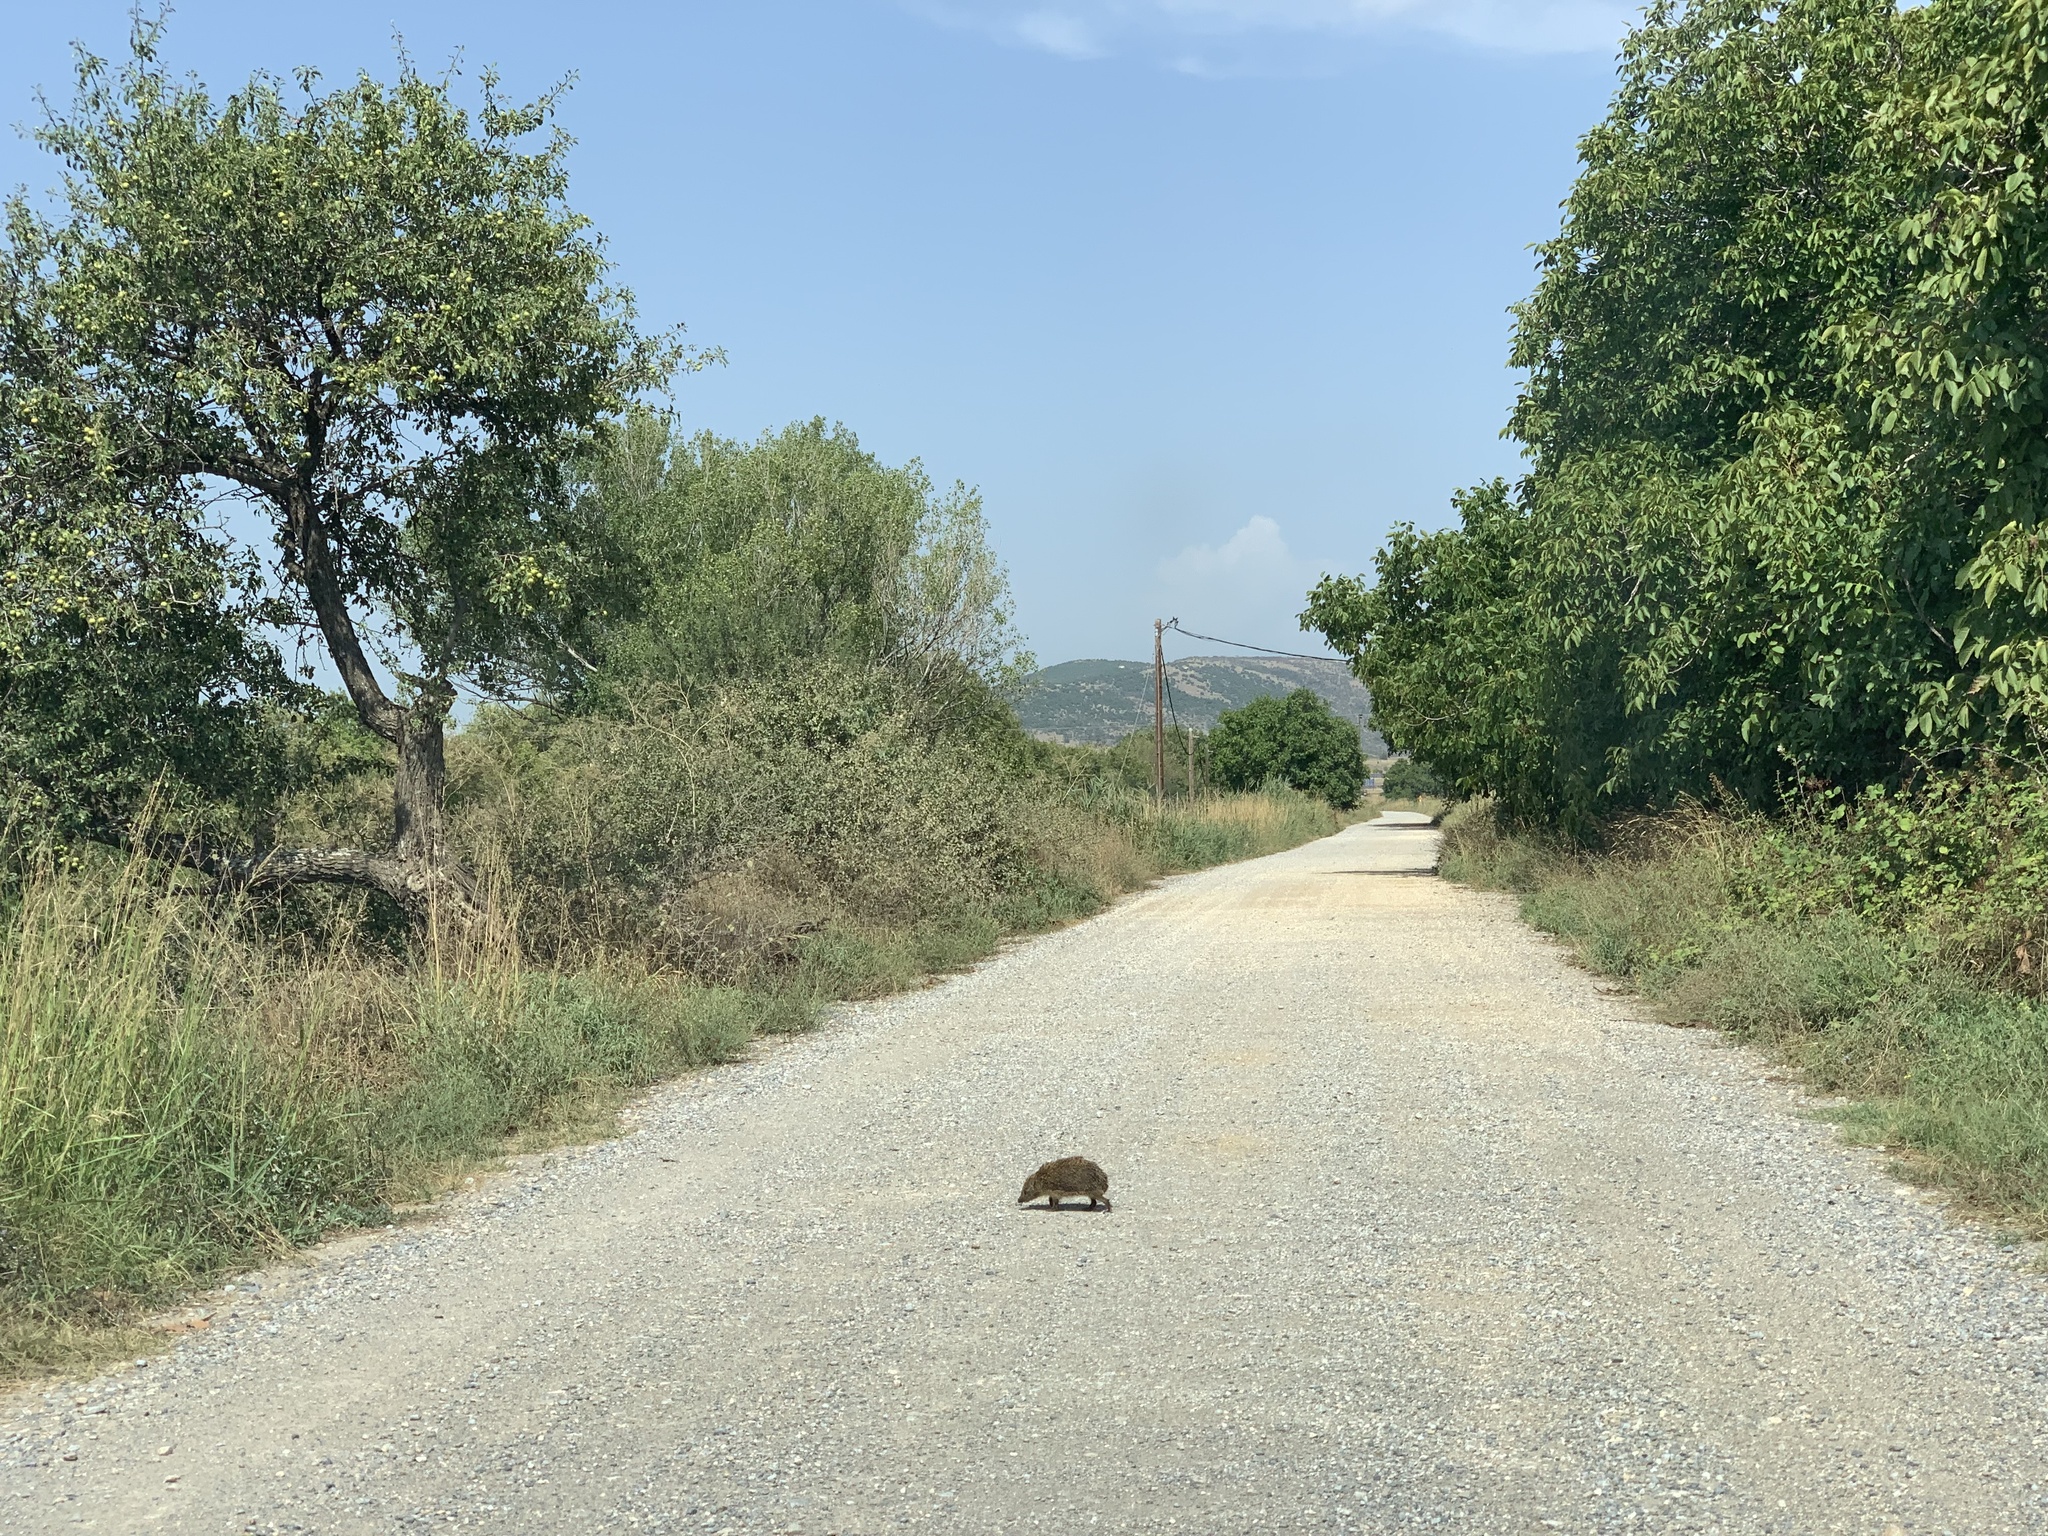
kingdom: Animalia
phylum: Chordata
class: Mammalia
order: Erinaceomorpha
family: Erinaceidae
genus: Erinaceus
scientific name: Erinaceus roumanicus
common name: Northern white-breasted hedgehog
